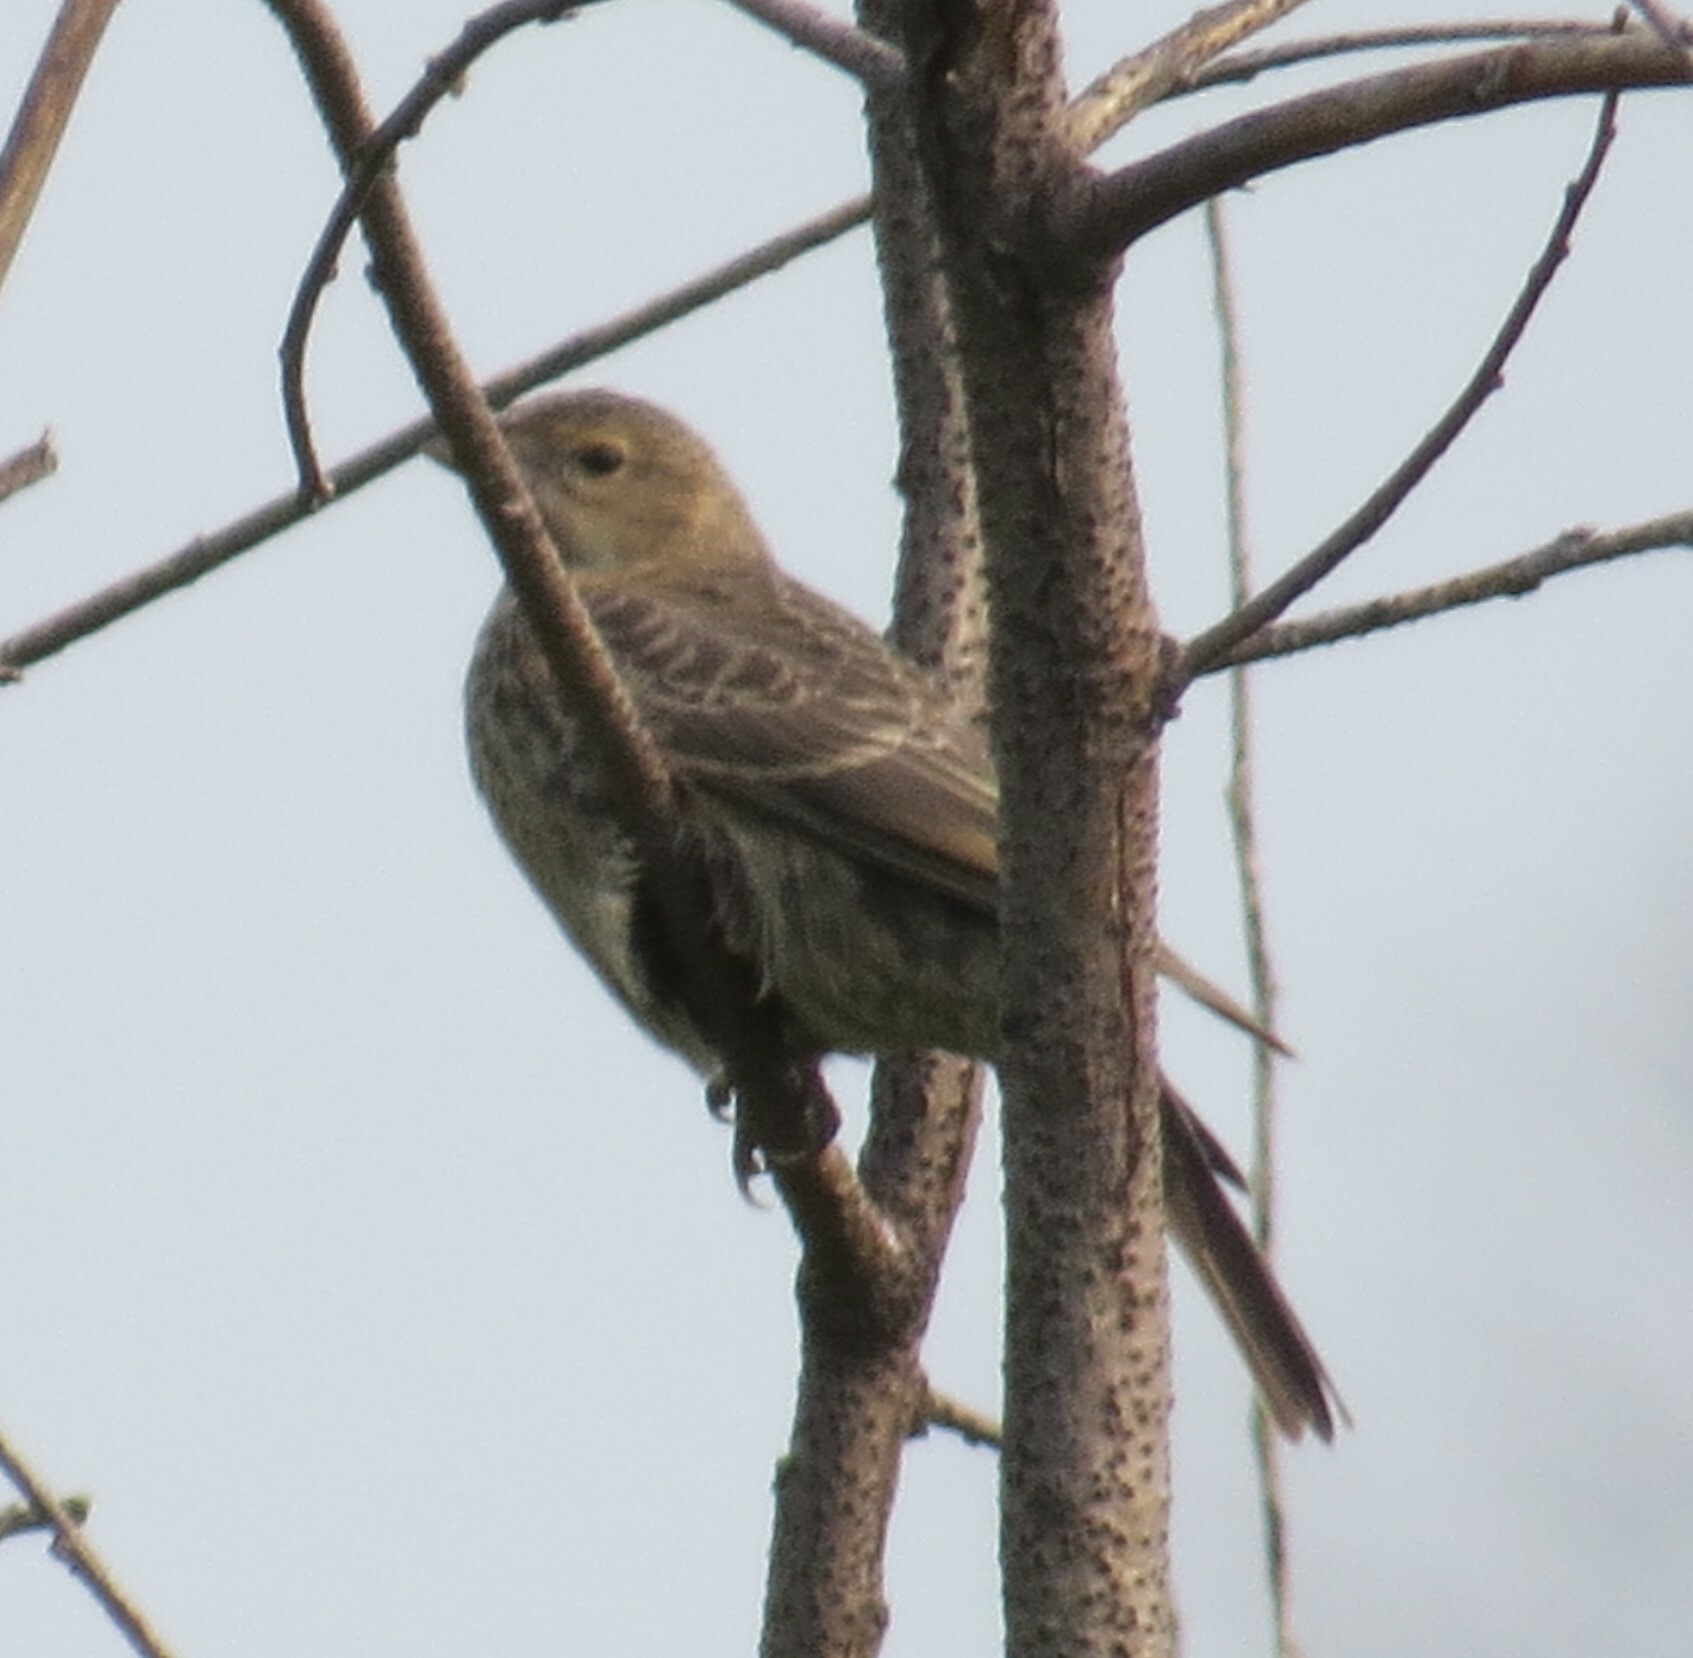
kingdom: Animalia
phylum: Chordata
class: Aves
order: Passeriformes
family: Icteridae
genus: Molothrus
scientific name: Molothrus ater
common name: Brown-headed cowbird
